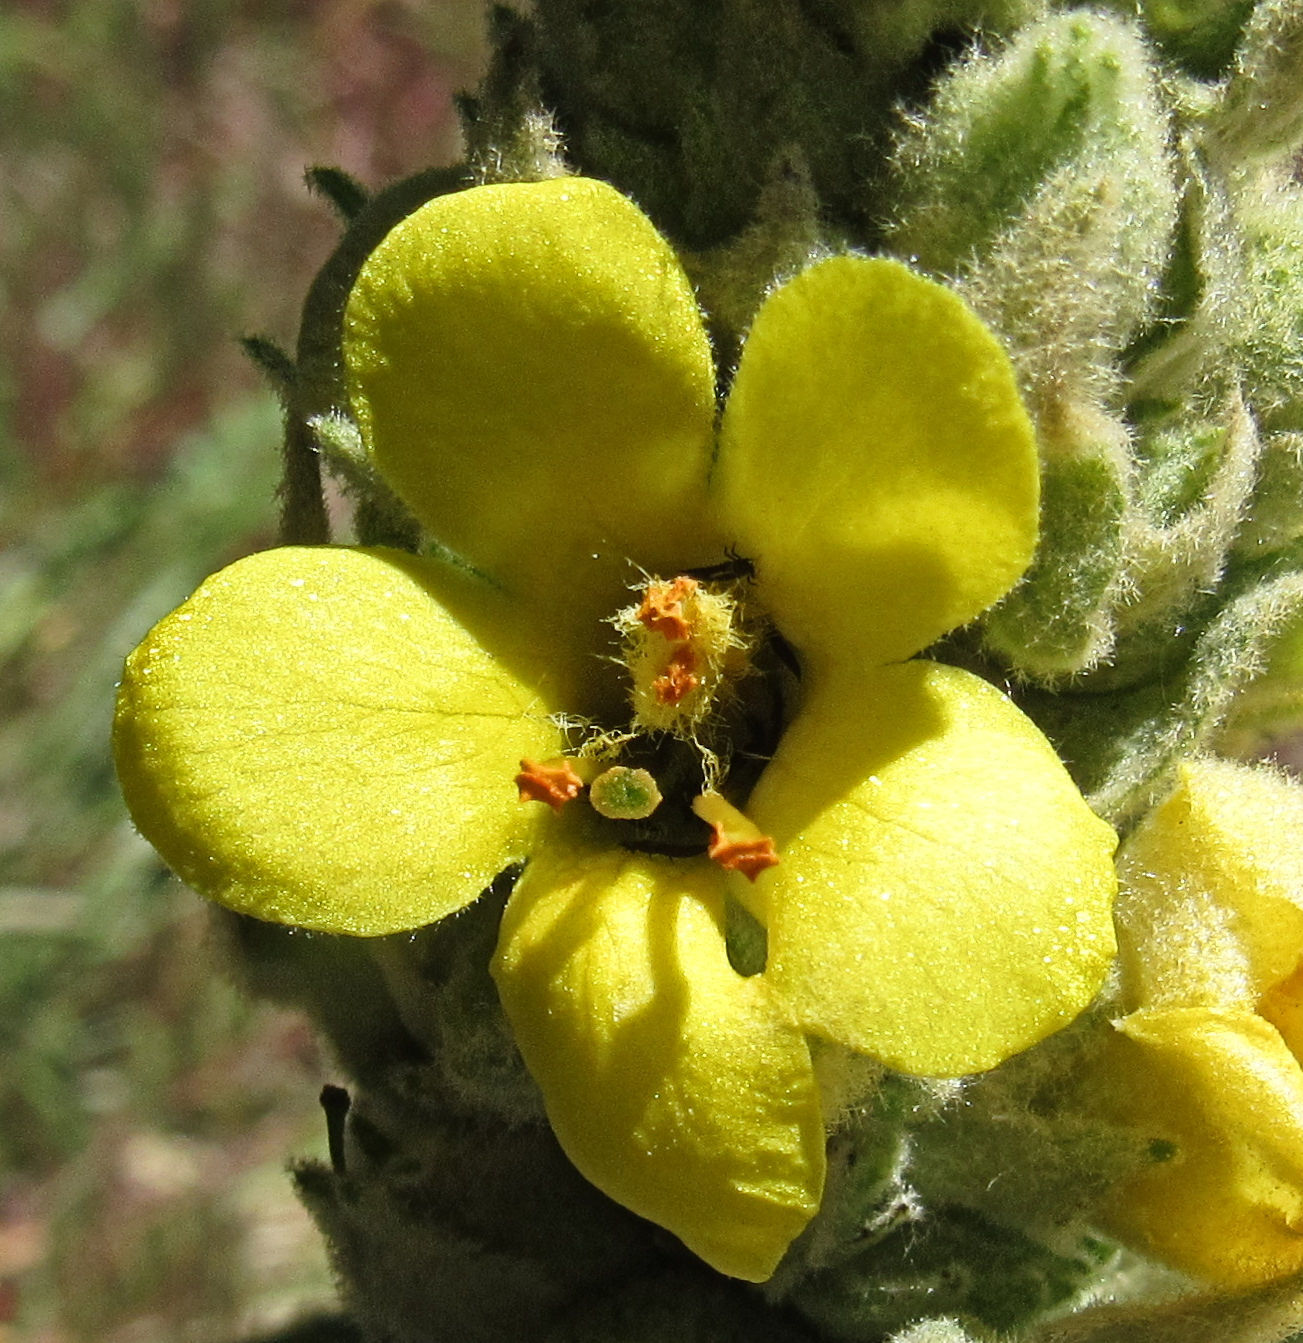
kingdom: Plantae
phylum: Tracheophyta
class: Magnoliopsida
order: Lamiales
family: Scrophulariaceae
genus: Verbascum
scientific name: Verbascum thapsus
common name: Common mullein
